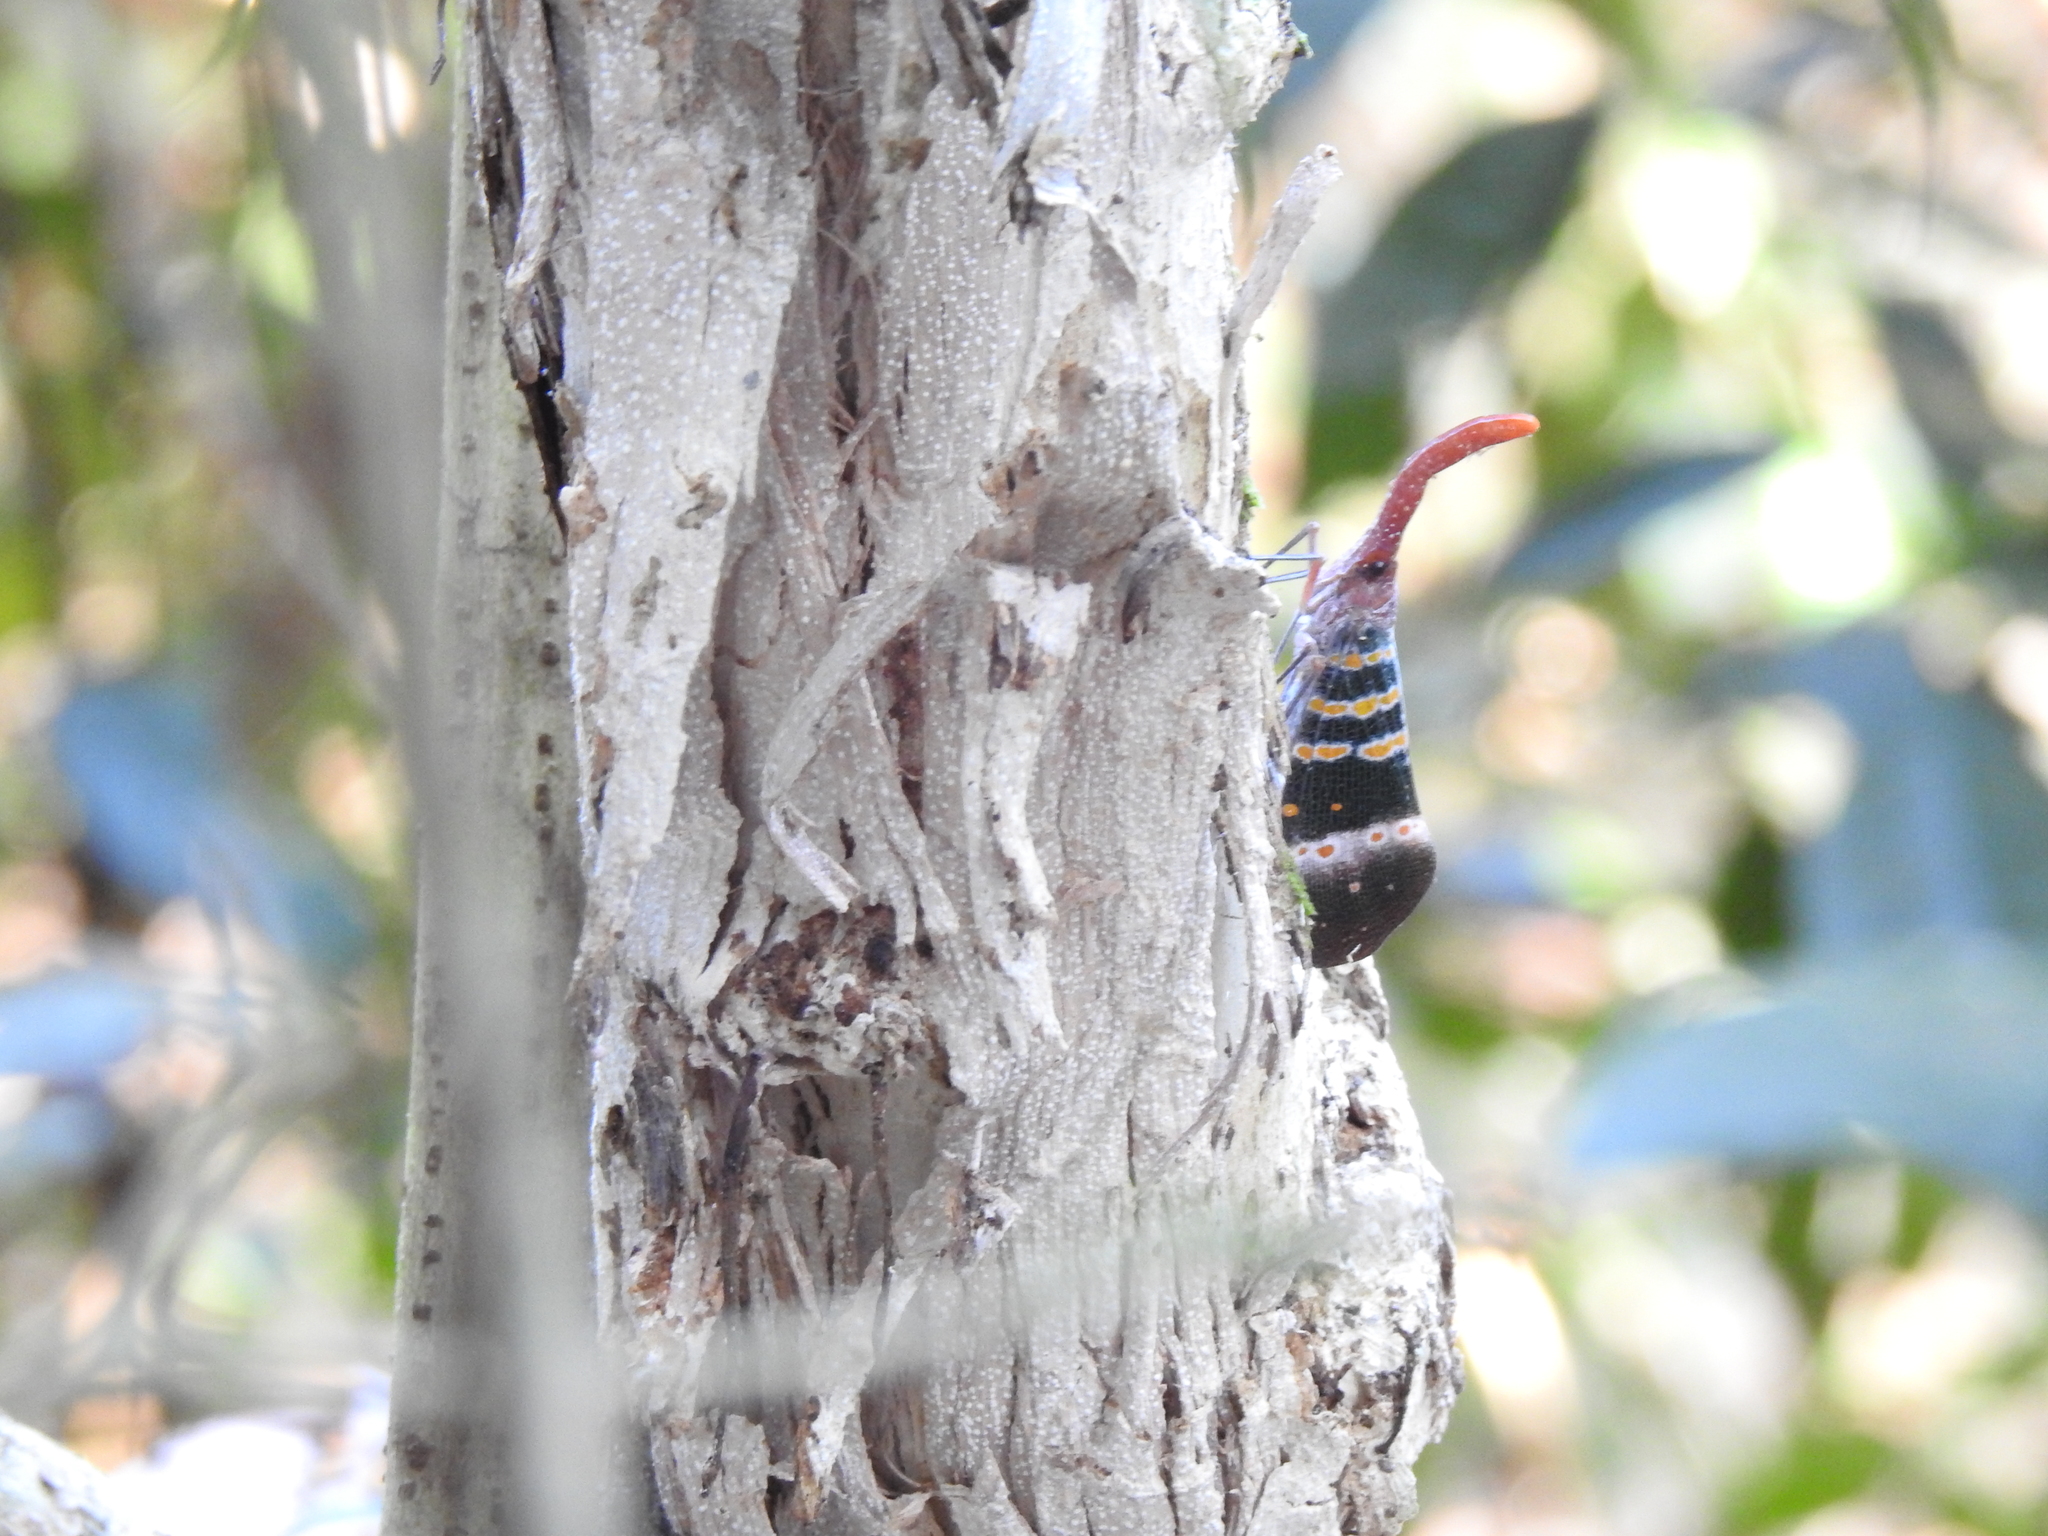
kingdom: Animalia
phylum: Arthropoda
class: Insecta
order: Hemiptera
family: Fulgoridae
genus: Pyrops
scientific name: Pyrops karenius
